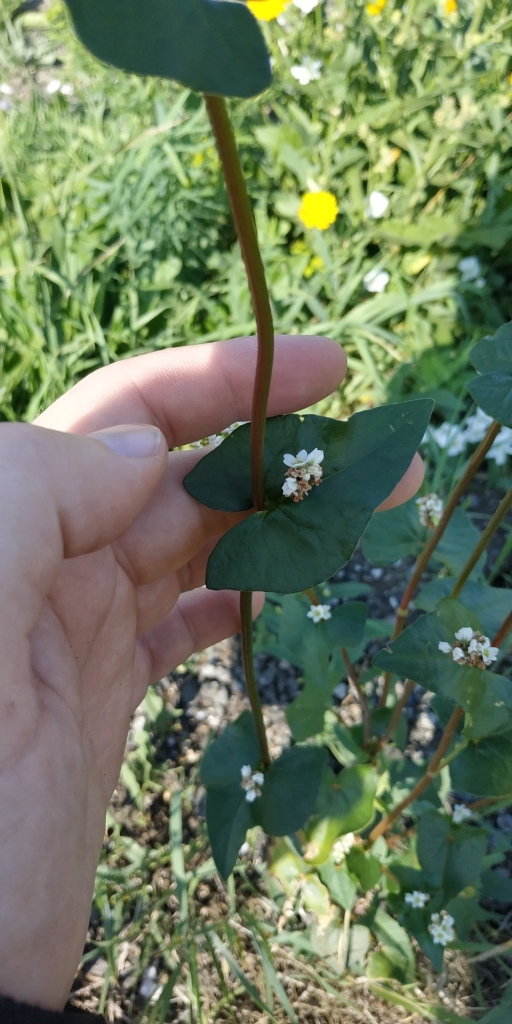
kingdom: Plantae
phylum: Tracheophyta
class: Magnoliopsida
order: Caryophyllales
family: Polygonaceae
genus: Fagopyrum
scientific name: Fagopyrum esculentum
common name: Buckwheat
